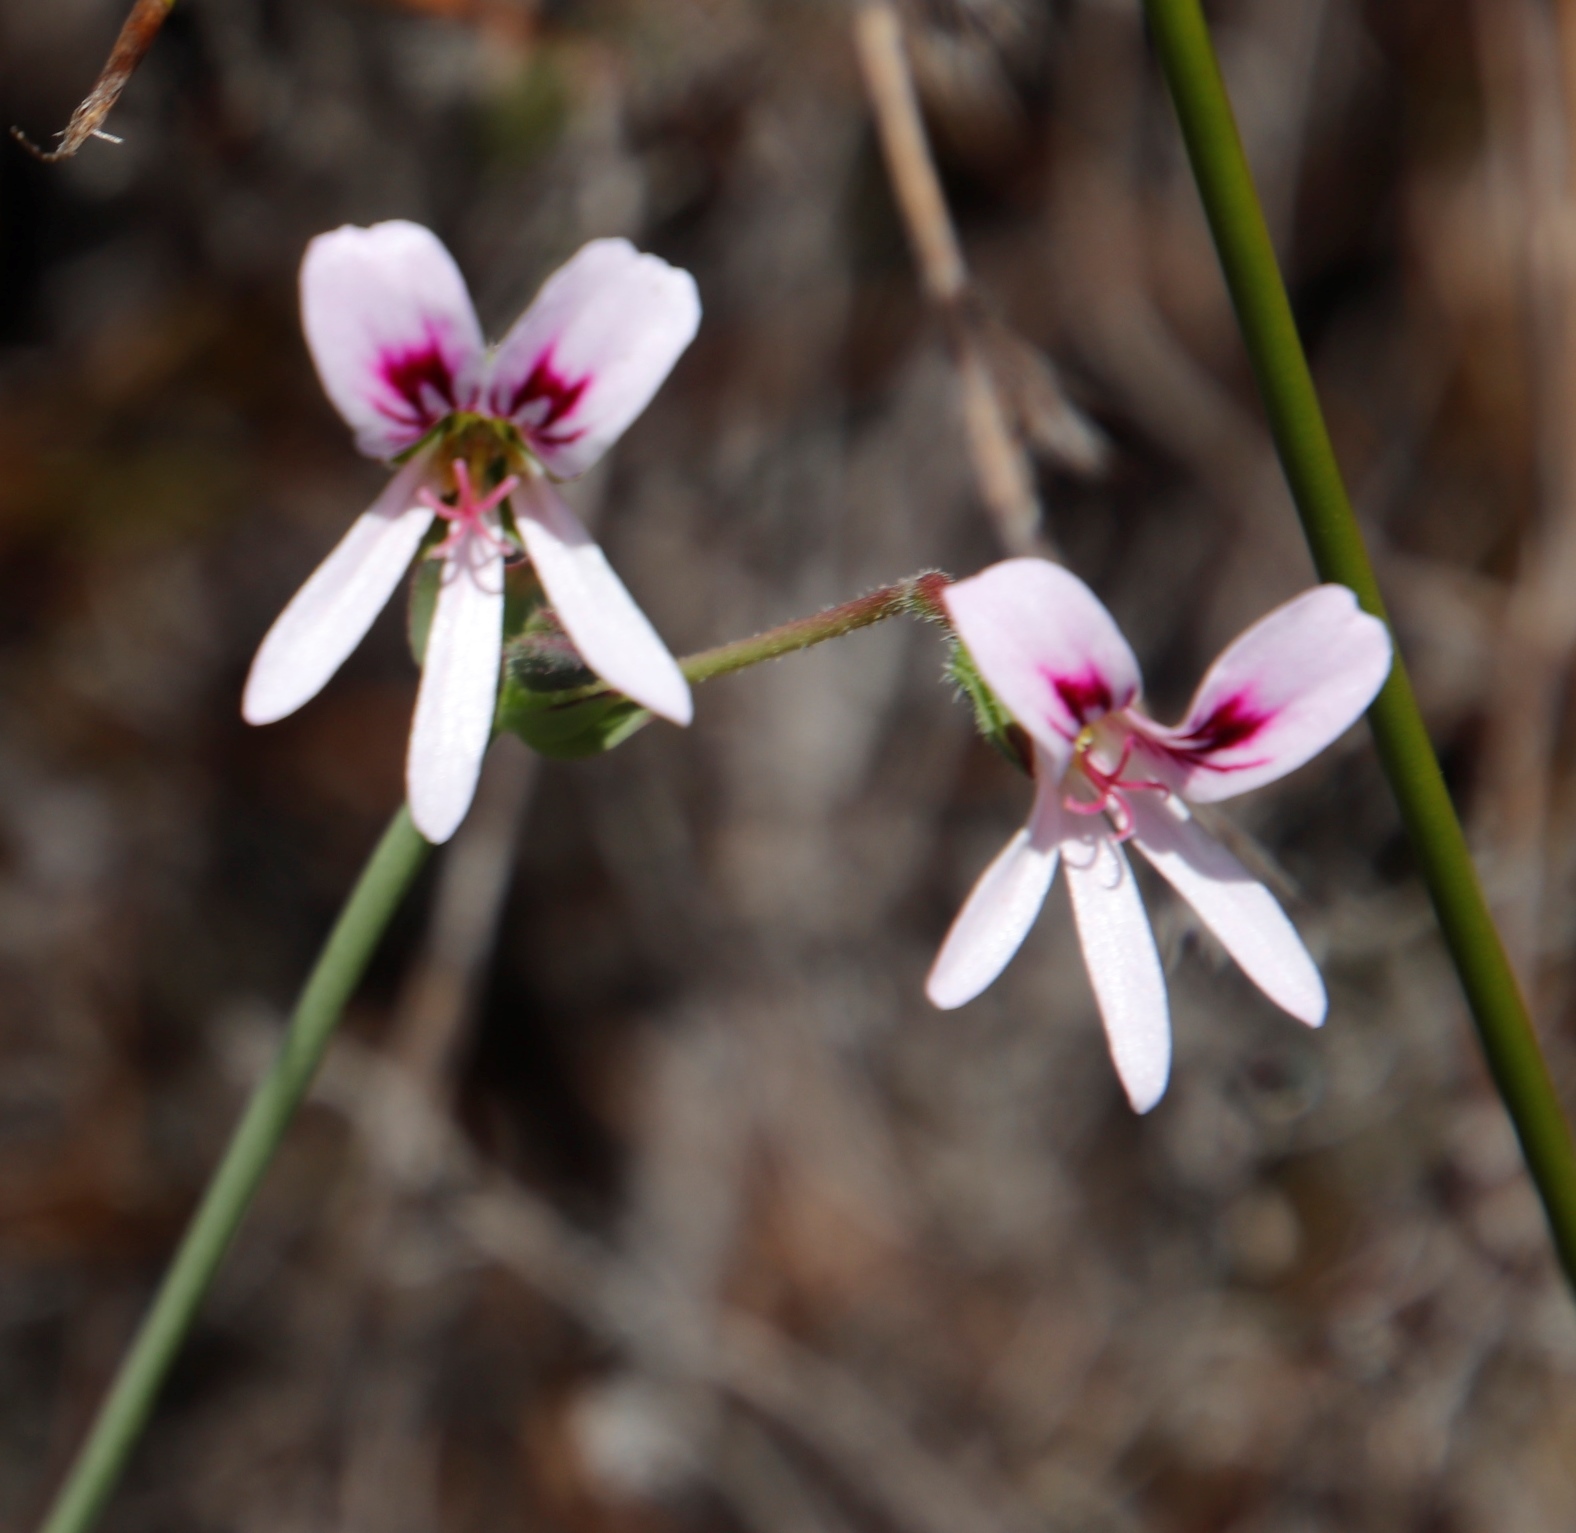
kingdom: Plantae
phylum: Tracheophyta
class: Magnoliopsida
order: Geraniales
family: Geraniaceae
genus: Pelargonium
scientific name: Pelargonium tabulare
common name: Table mountain pelargonium
